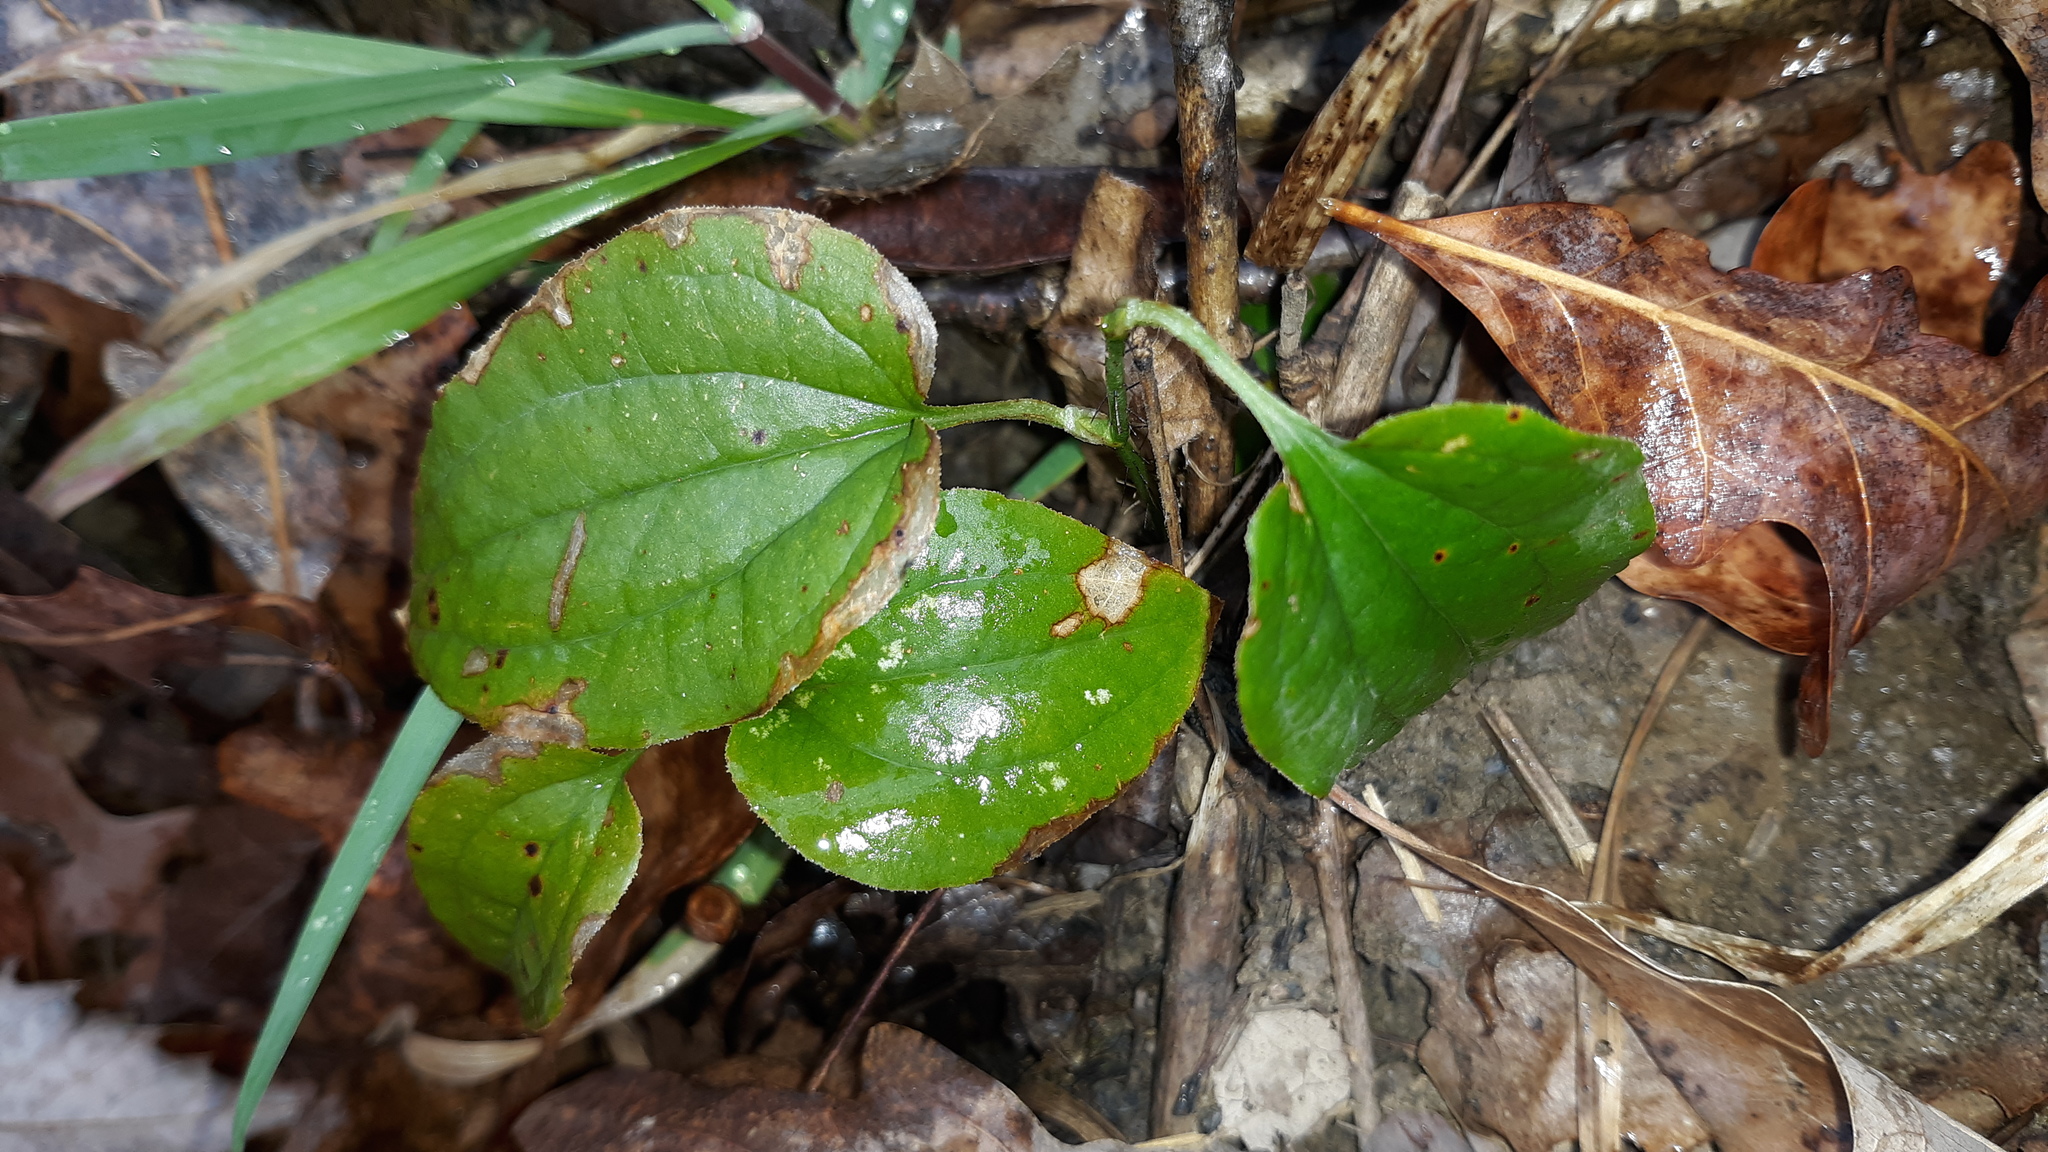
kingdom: Plantae
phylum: Tracheophyta
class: Liliopsida
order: Liliales
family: Smilacaceae
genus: Smilax
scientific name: Smilax tamnoides
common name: Hellfetter
